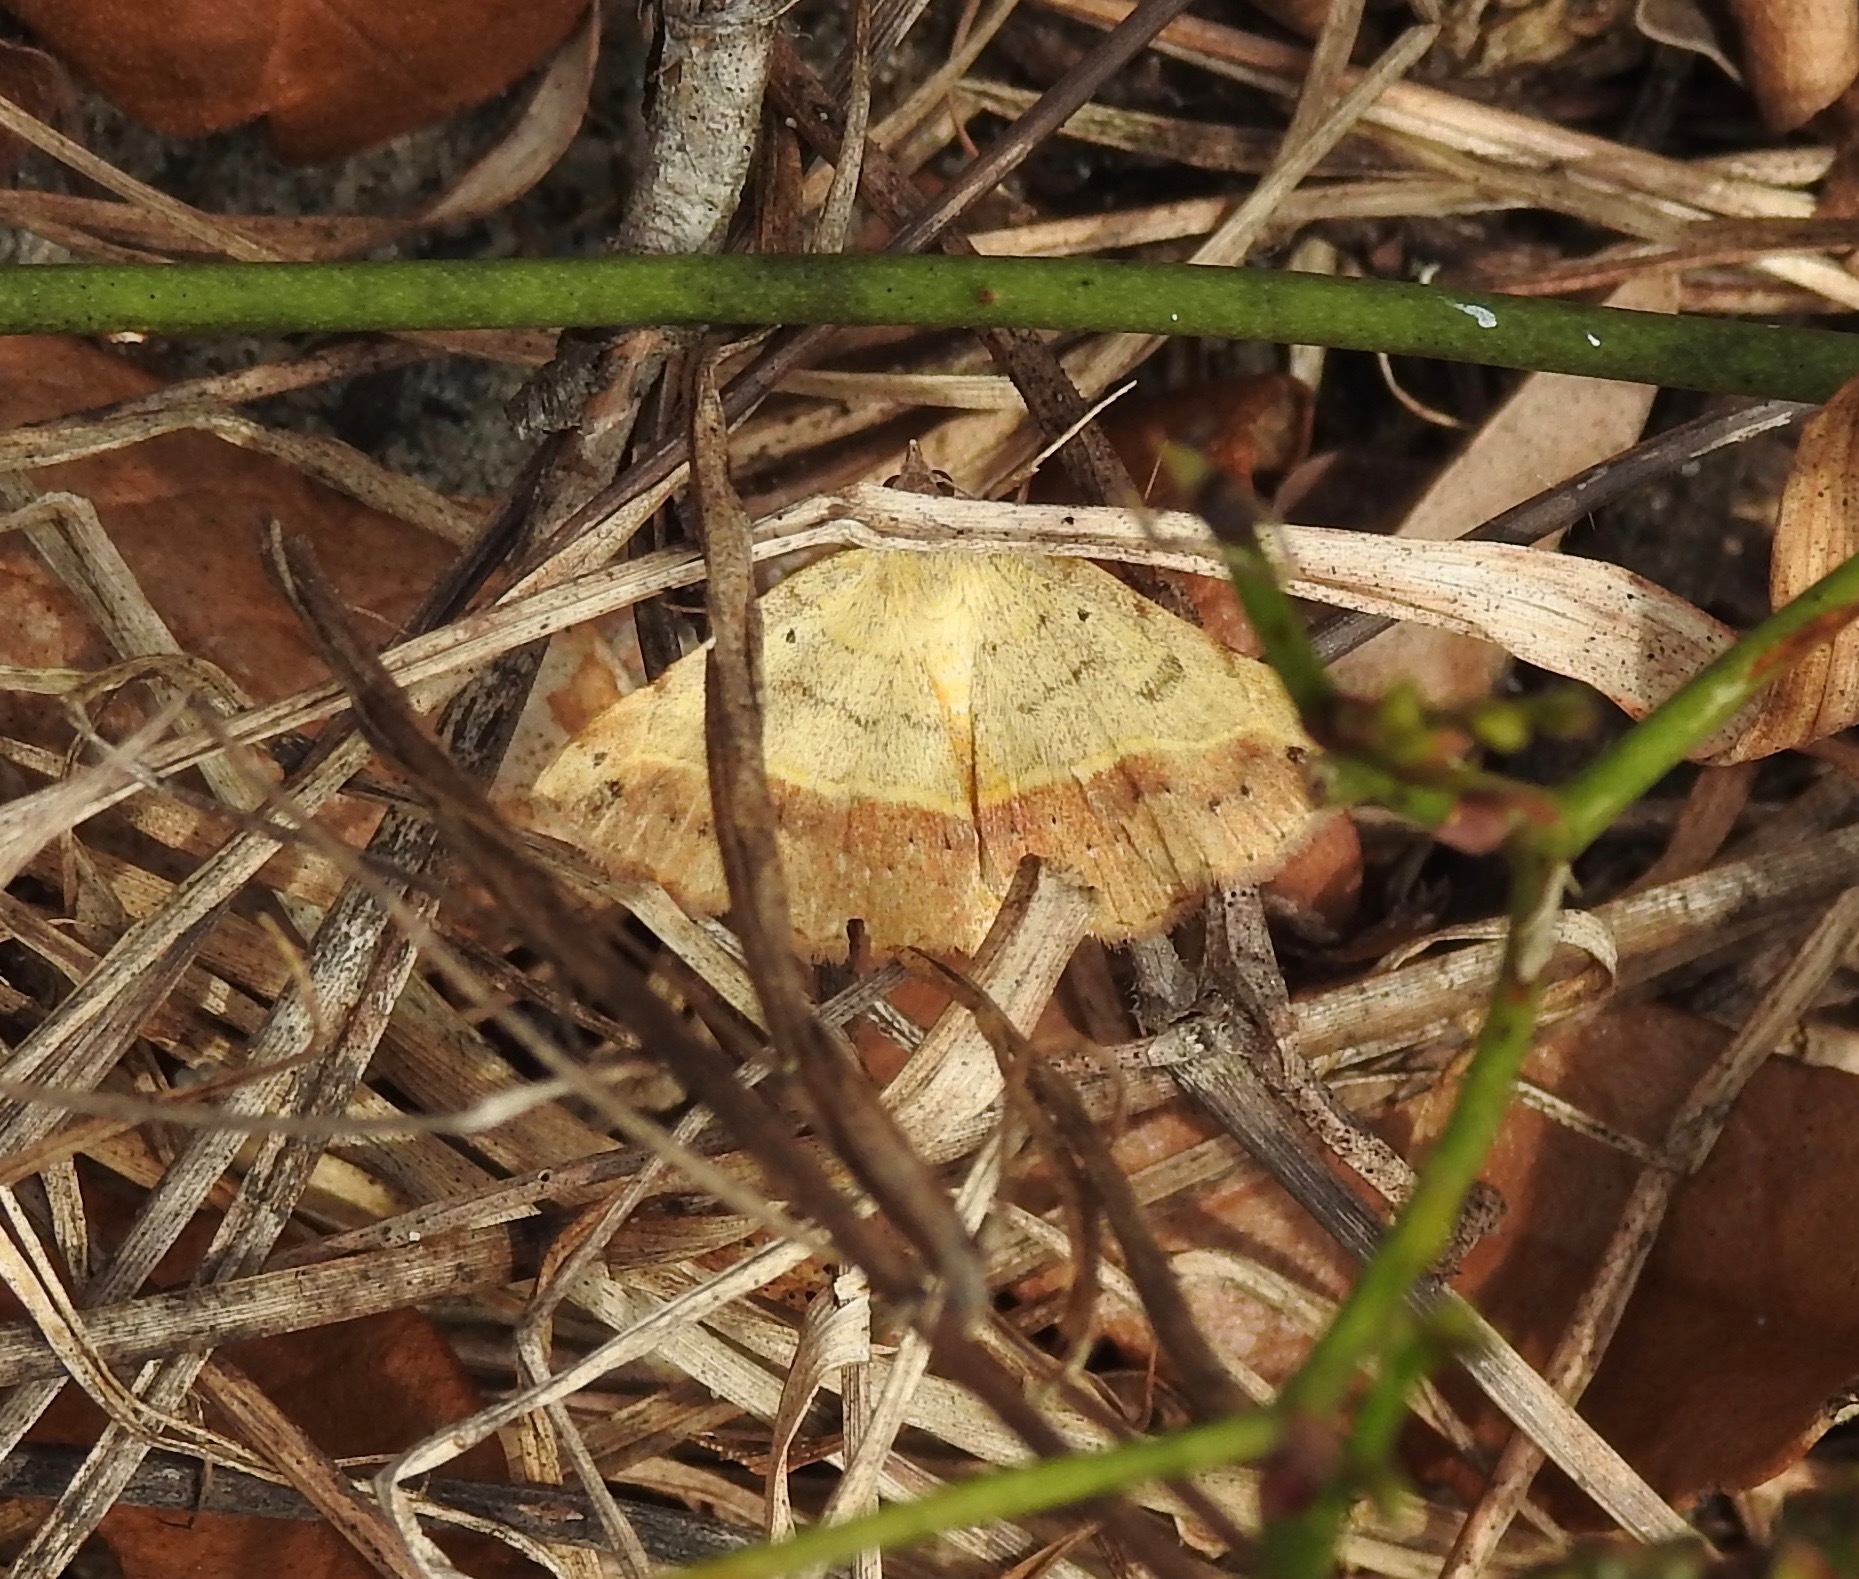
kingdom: Animalia
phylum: Arthropoda
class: Insecta
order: Lepidoptera
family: Erebidae
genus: Hemeroplanis
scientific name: Hemeroplanis scopulepes
